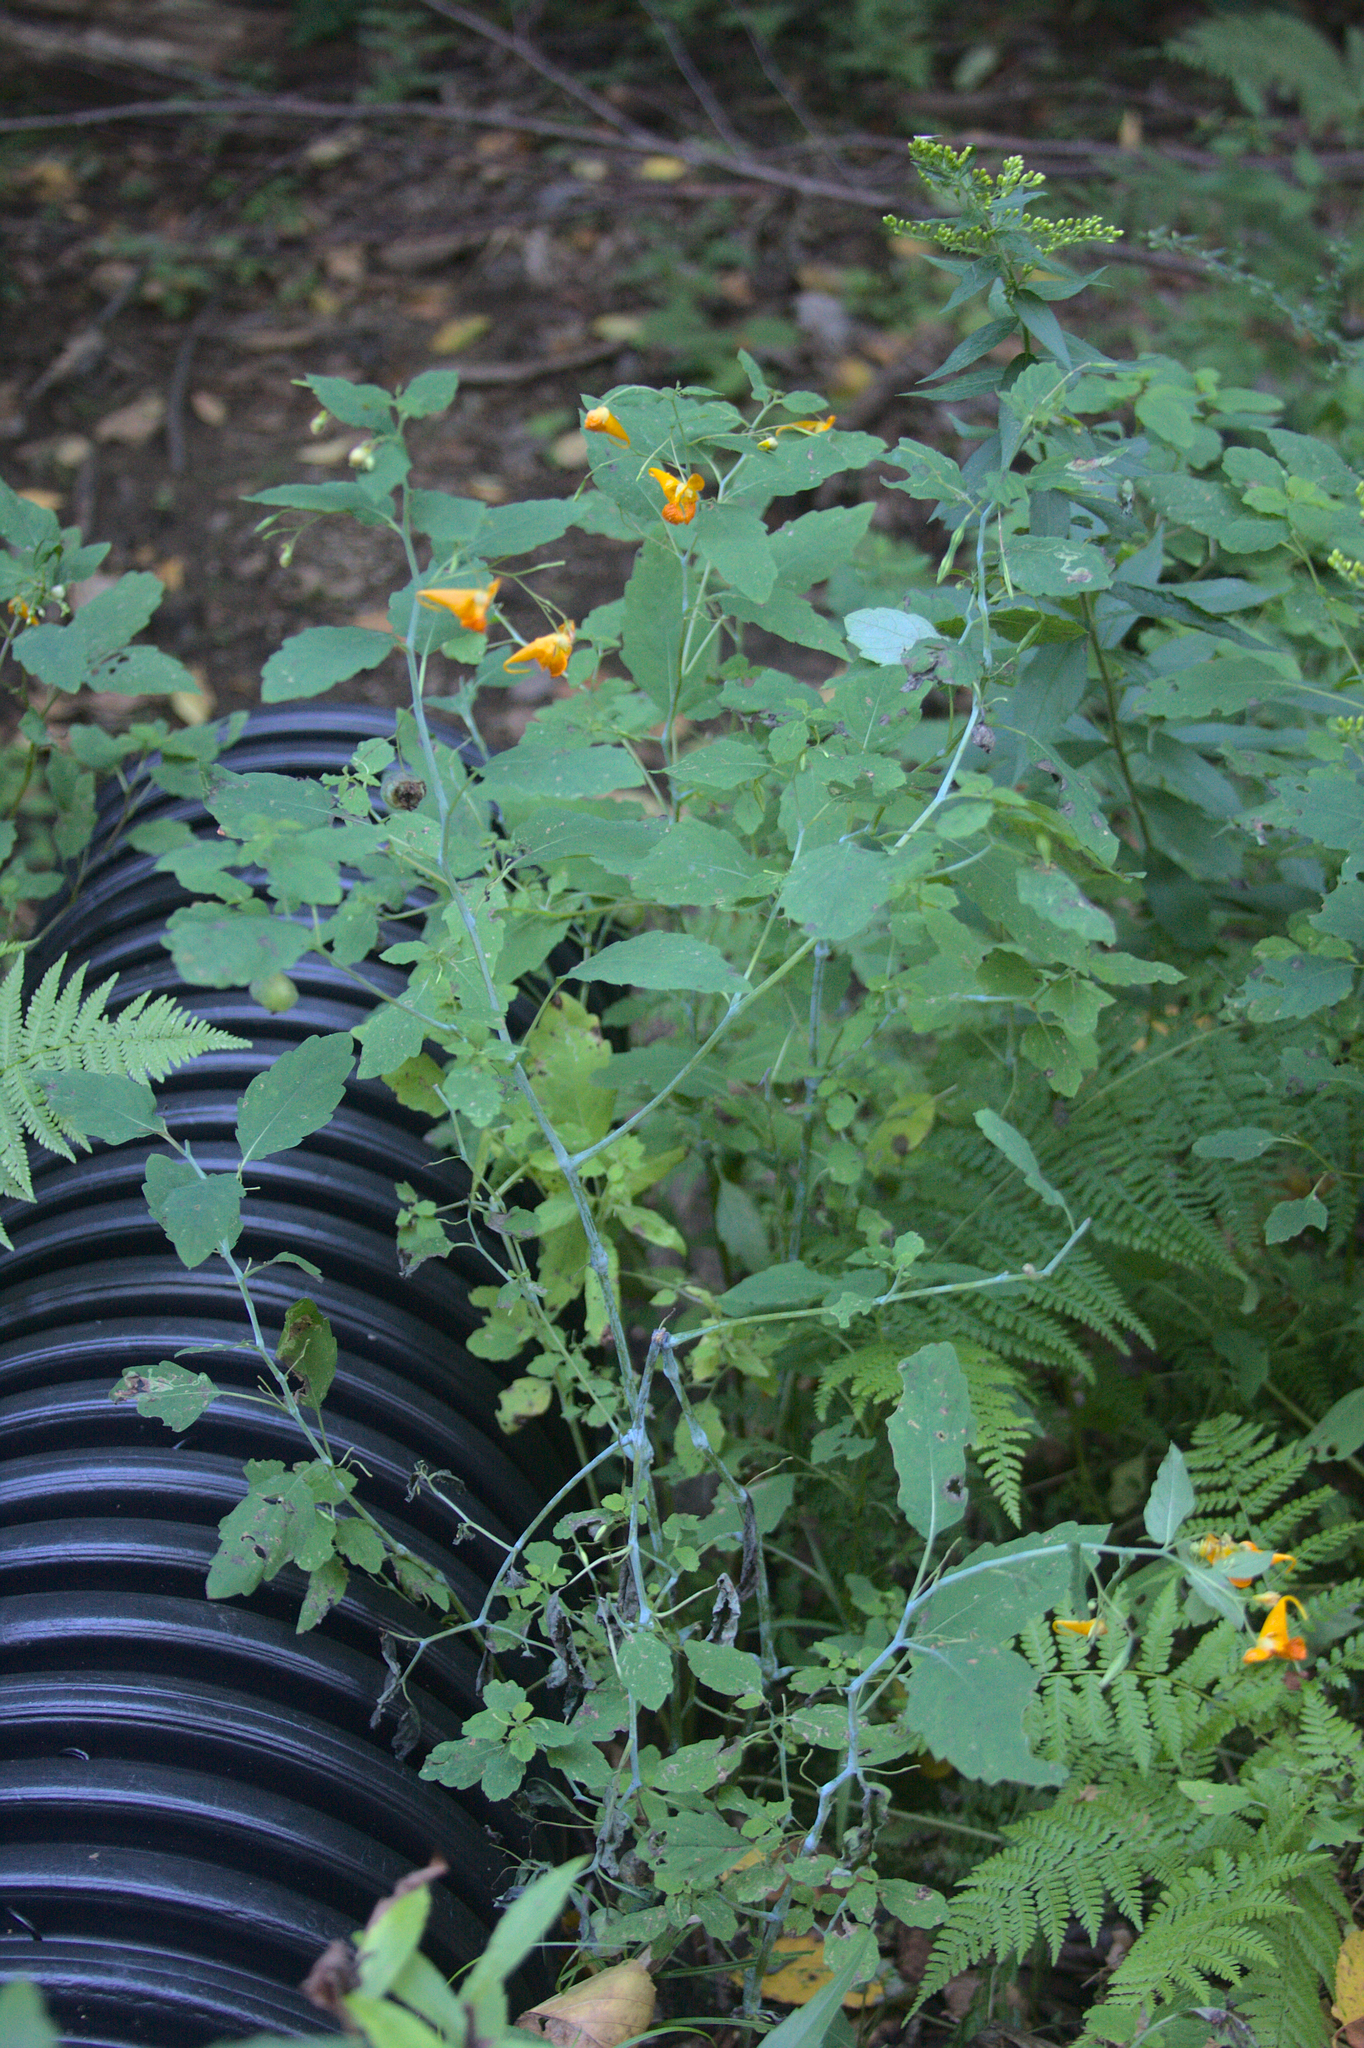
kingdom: Plantae
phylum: Tracheophyta
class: Magnoliopsida
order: Ericales
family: Balsaminaceae
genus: Impatiens
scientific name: Impatiens capensis
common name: Orange balsam
